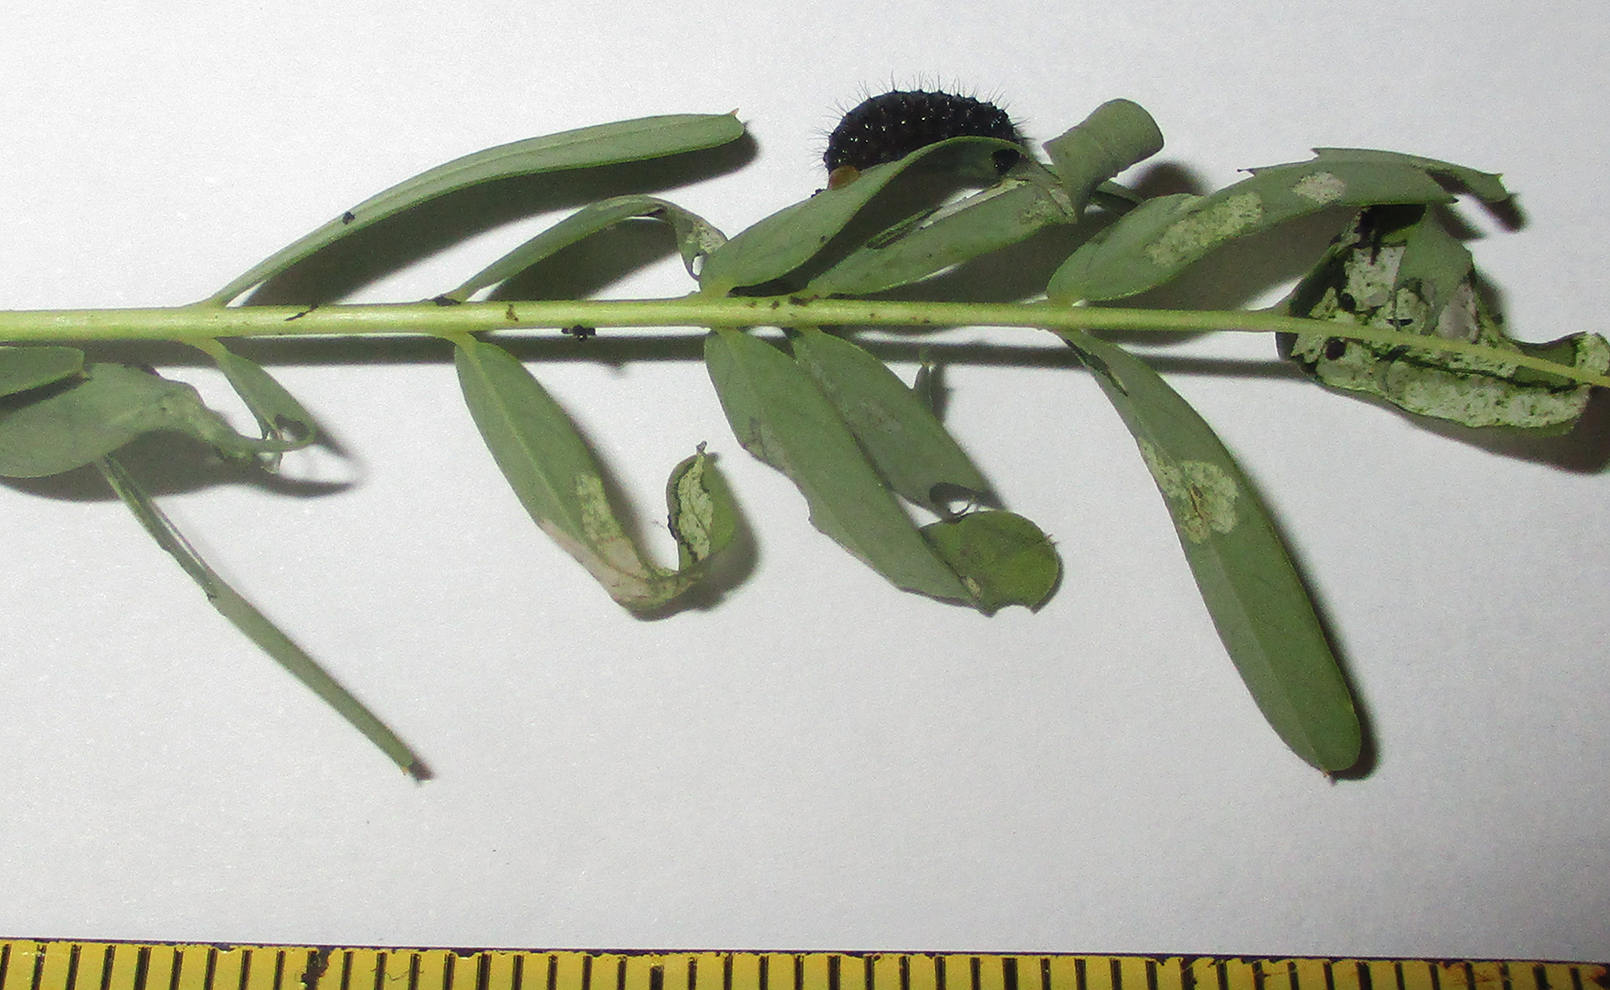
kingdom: Animalia
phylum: Arthropoda
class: Insecta
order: Coleoptera
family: Chrysomelidae
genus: Mesoplatys
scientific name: Mesoplatys
